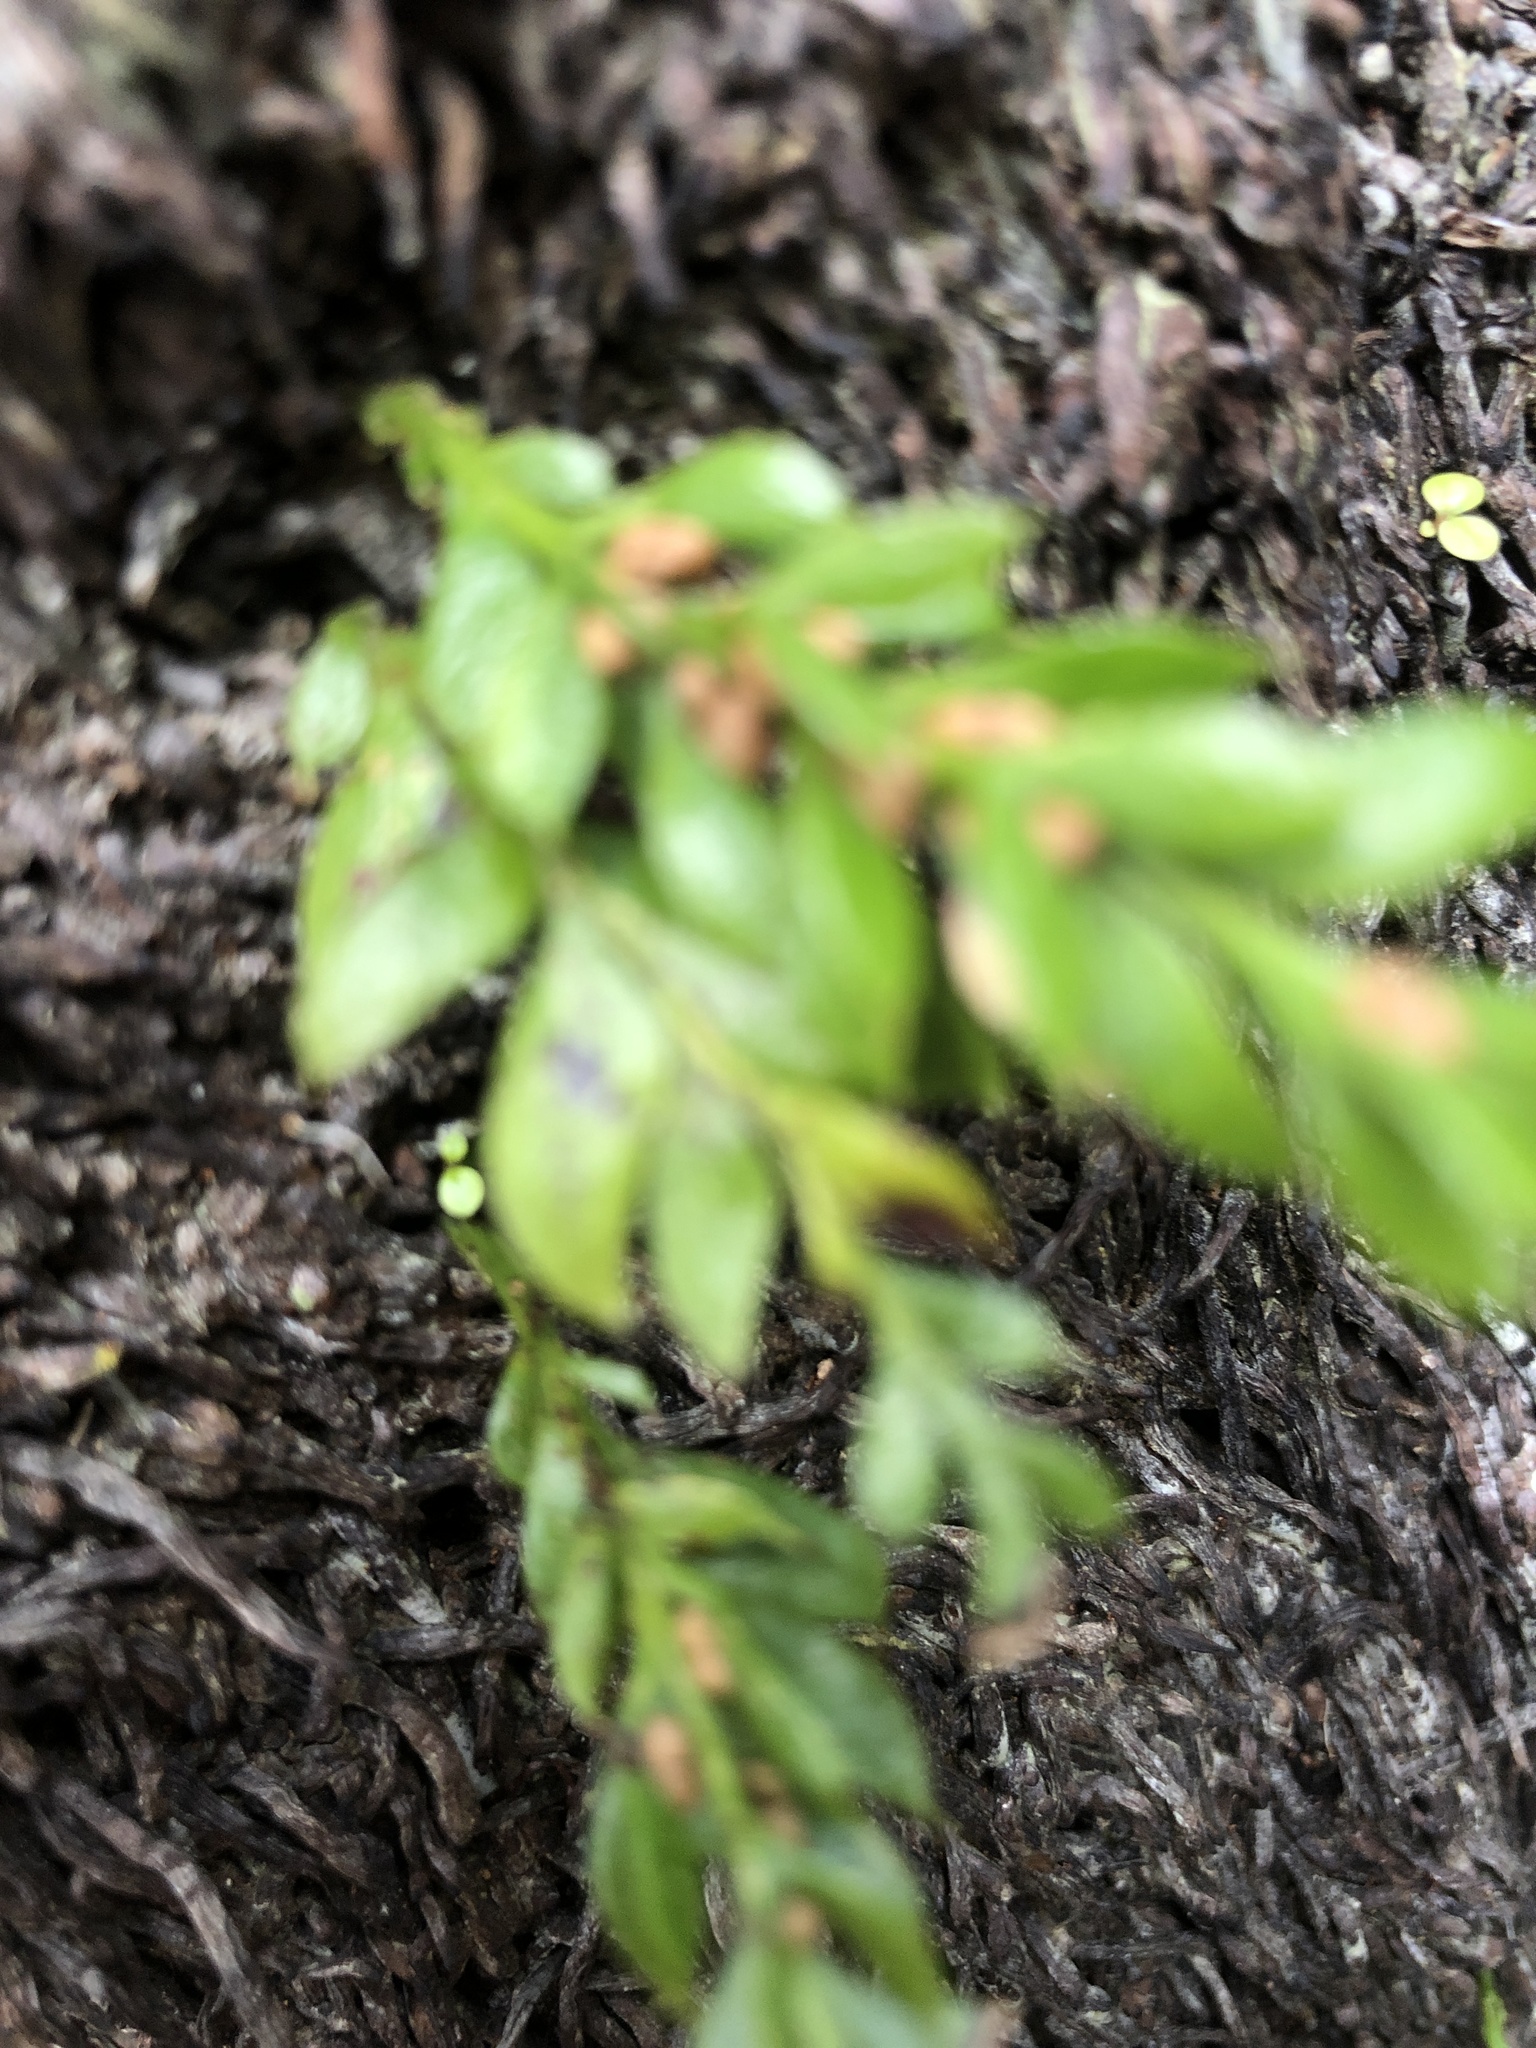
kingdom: Plantae
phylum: Tracheophyta
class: Polypodiopsida
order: Psilotales
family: Psilotaceae
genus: Tmesipteris
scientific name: Tmesipteris lanceolata
